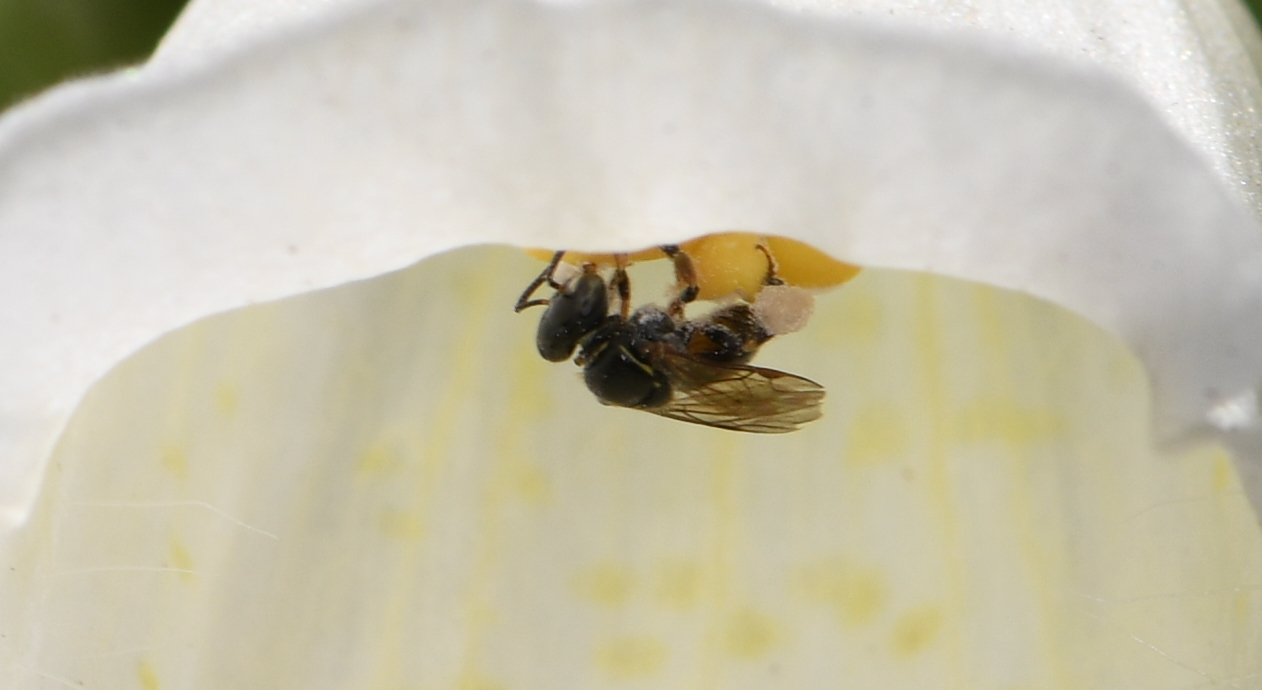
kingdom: Animalia
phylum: Arthropoda
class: Insecta
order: Hymenoptera
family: Apidae
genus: Plebeia
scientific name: Plebeia emerina
